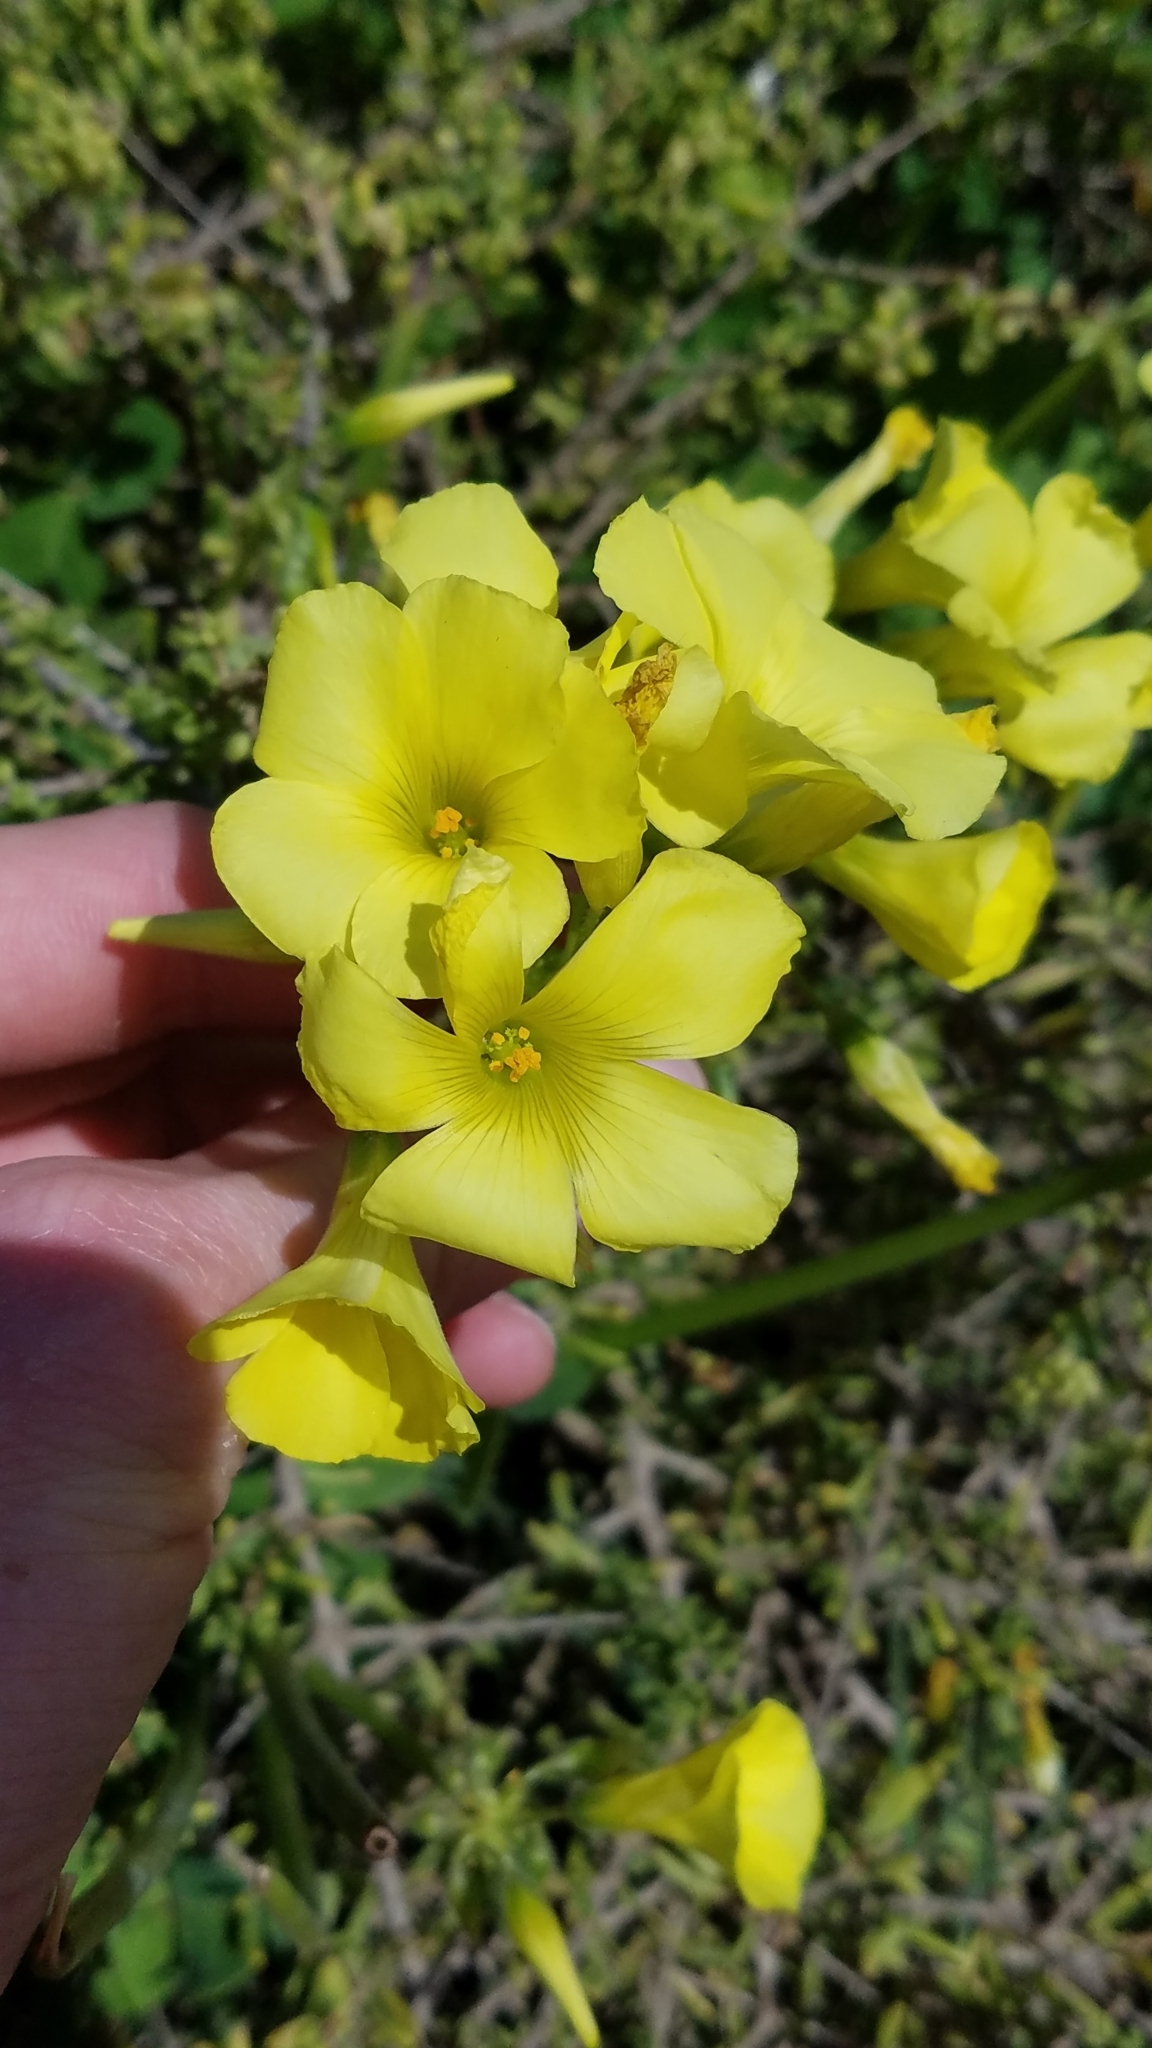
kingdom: Plantae
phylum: Tracheophyta
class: Magnoliopsida
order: Oxalidales
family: Oxalidaceae
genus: Oxalis
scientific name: Oxalis pes-caprae
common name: Bermuda-buttercup
